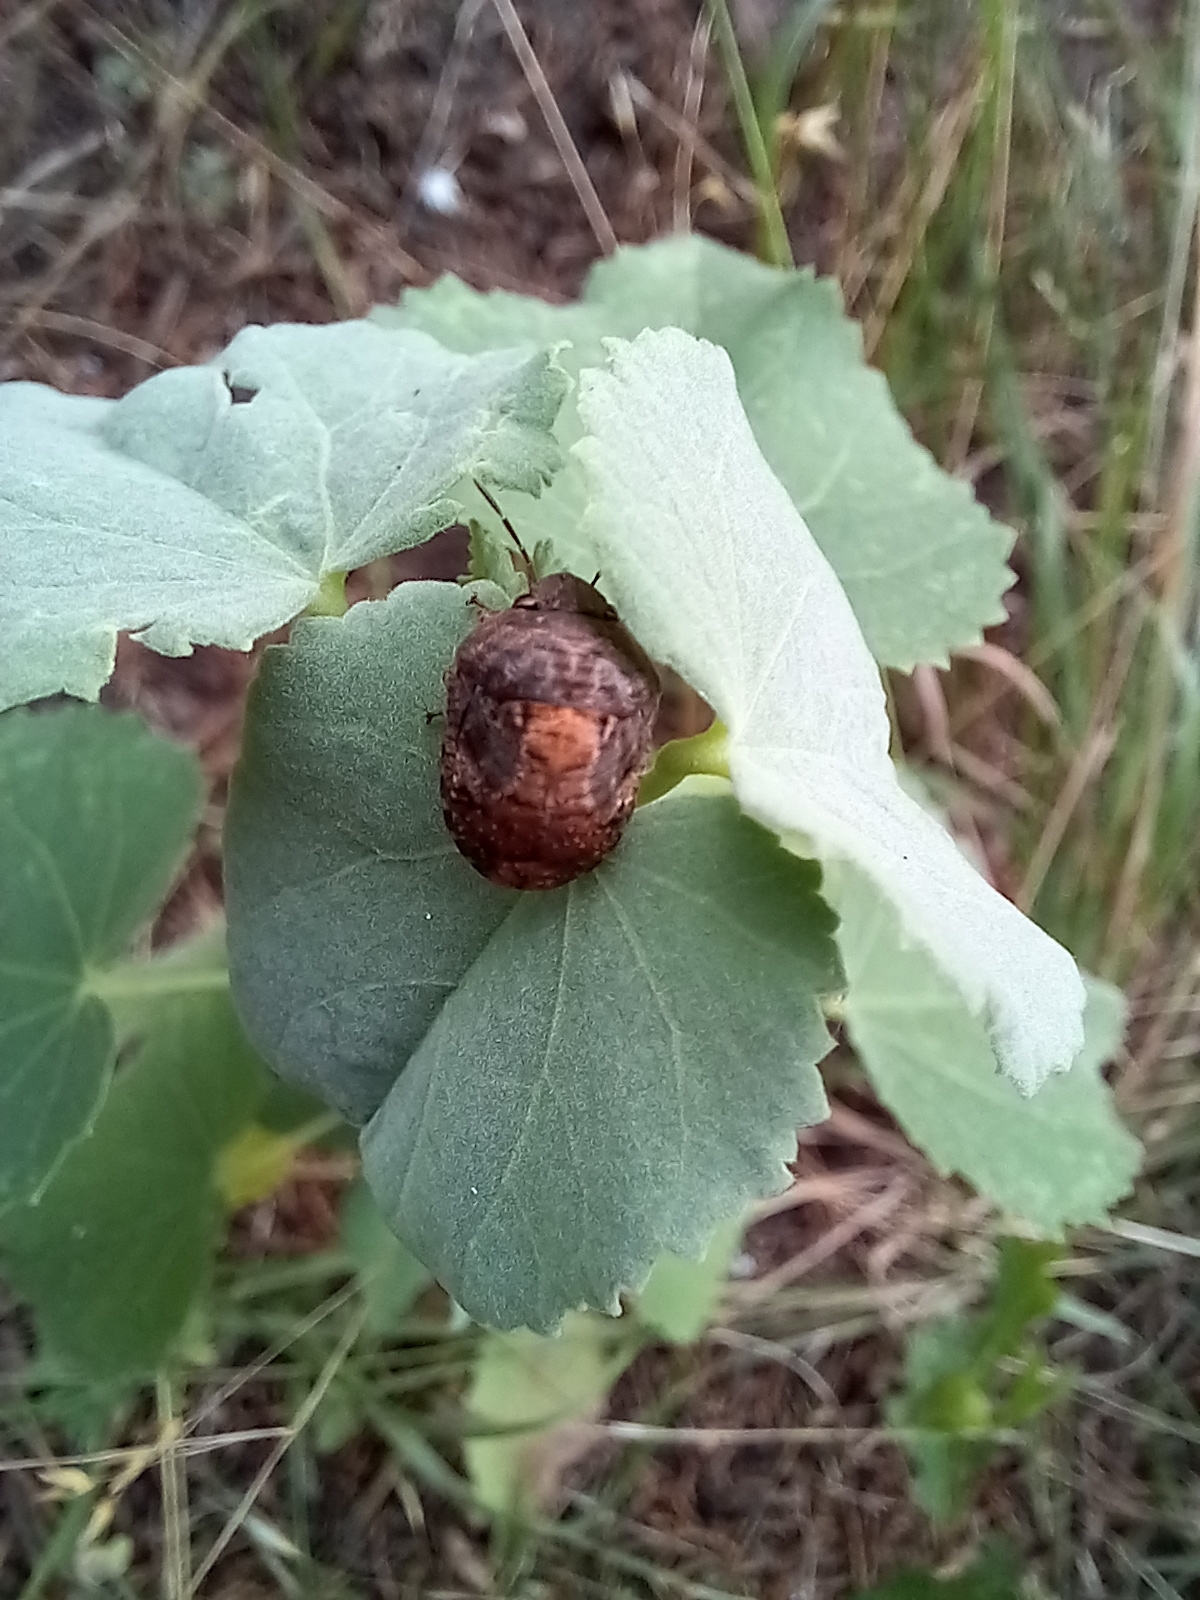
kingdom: Animalia
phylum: Arthropoda
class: Insecta
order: Hemiptera
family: Scutelleridae
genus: Stethaulax
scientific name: Stethaulax marmoratus
